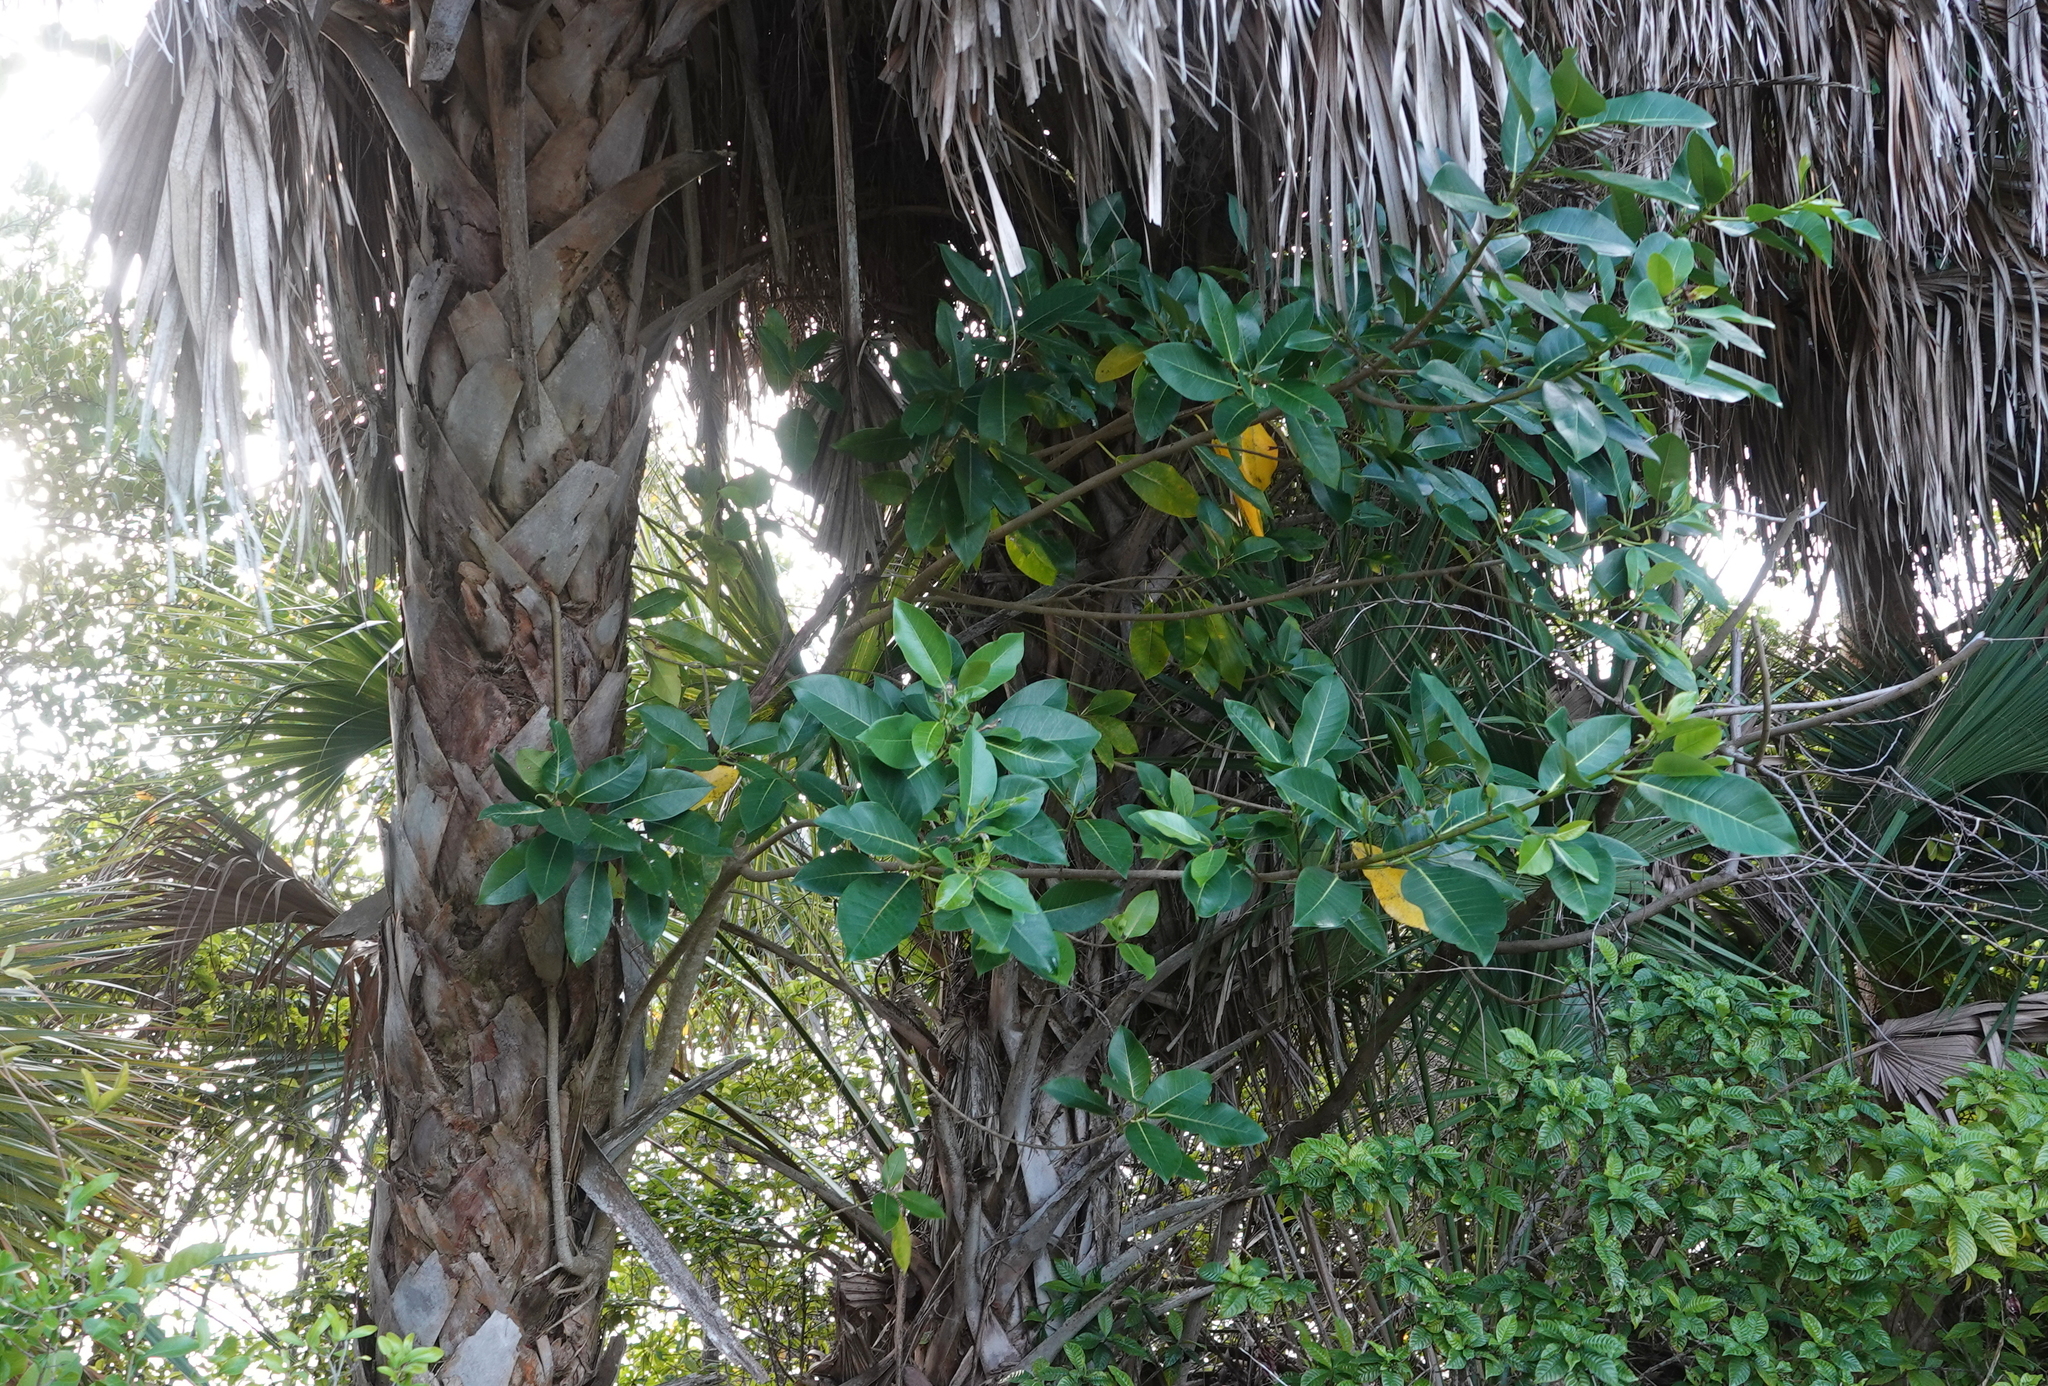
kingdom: Plantae
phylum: Tracheophyta
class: Magnoliopsida
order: Rosales
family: Moraceae
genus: Ficus
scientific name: Ficus aurea
